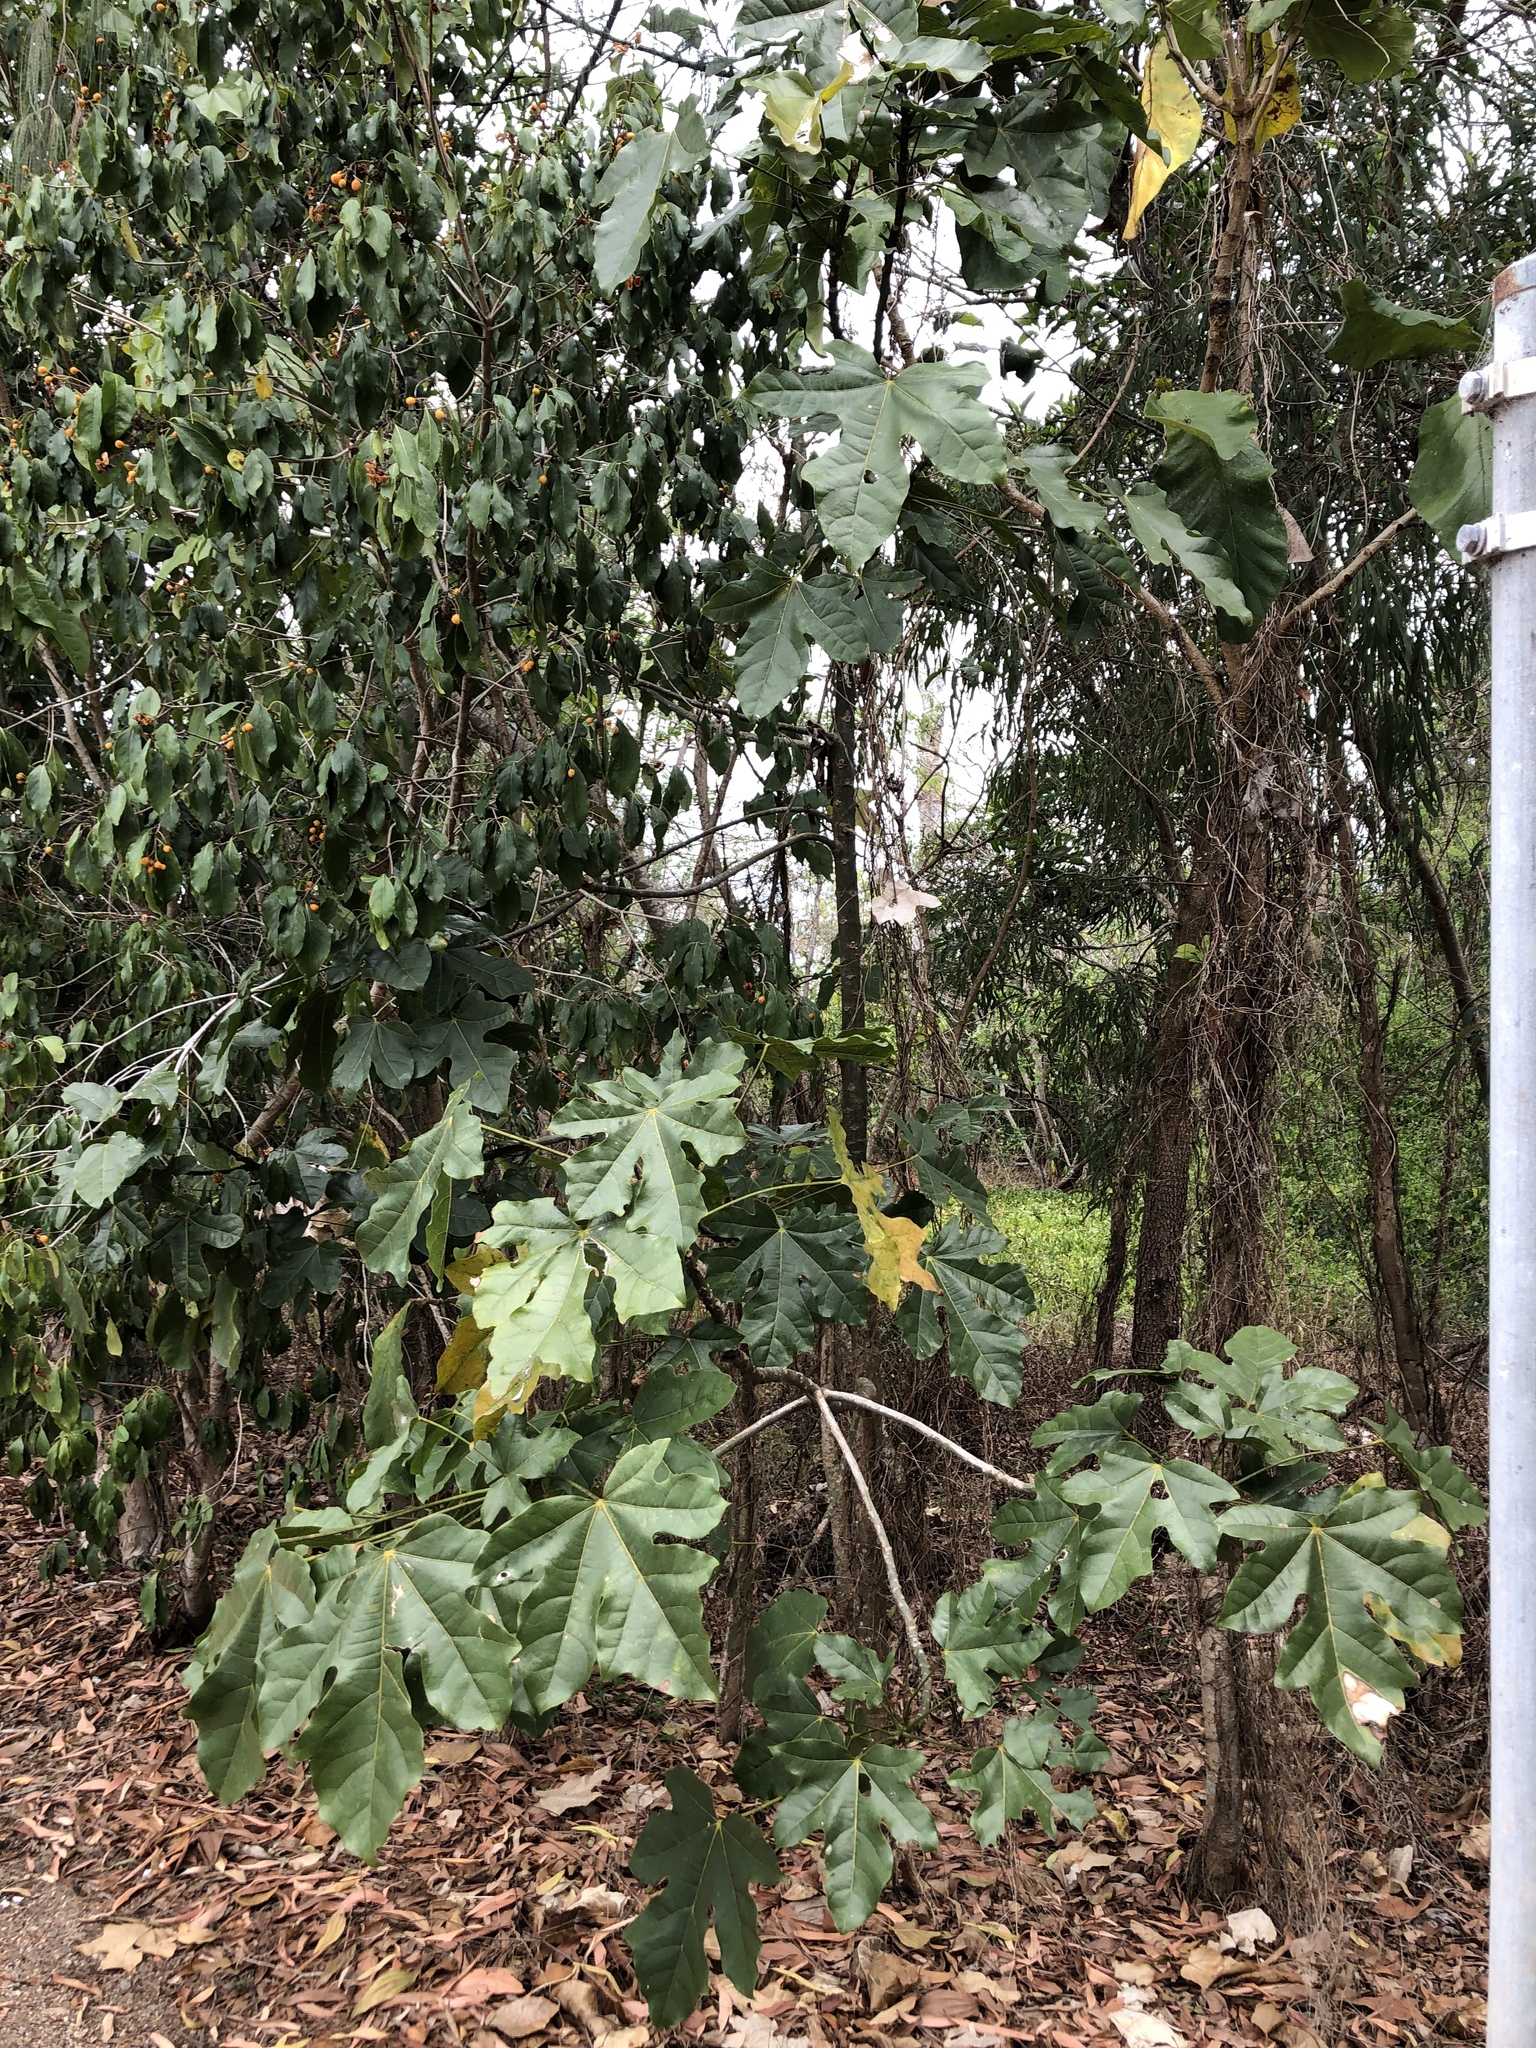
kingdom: Plantae
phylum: Tracheophyta
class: Magnoliopsida
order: Malvales
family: Malvaceae
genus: Brachychiton
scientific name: Brachychiton acerifolius
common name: Illawarra flame tree
